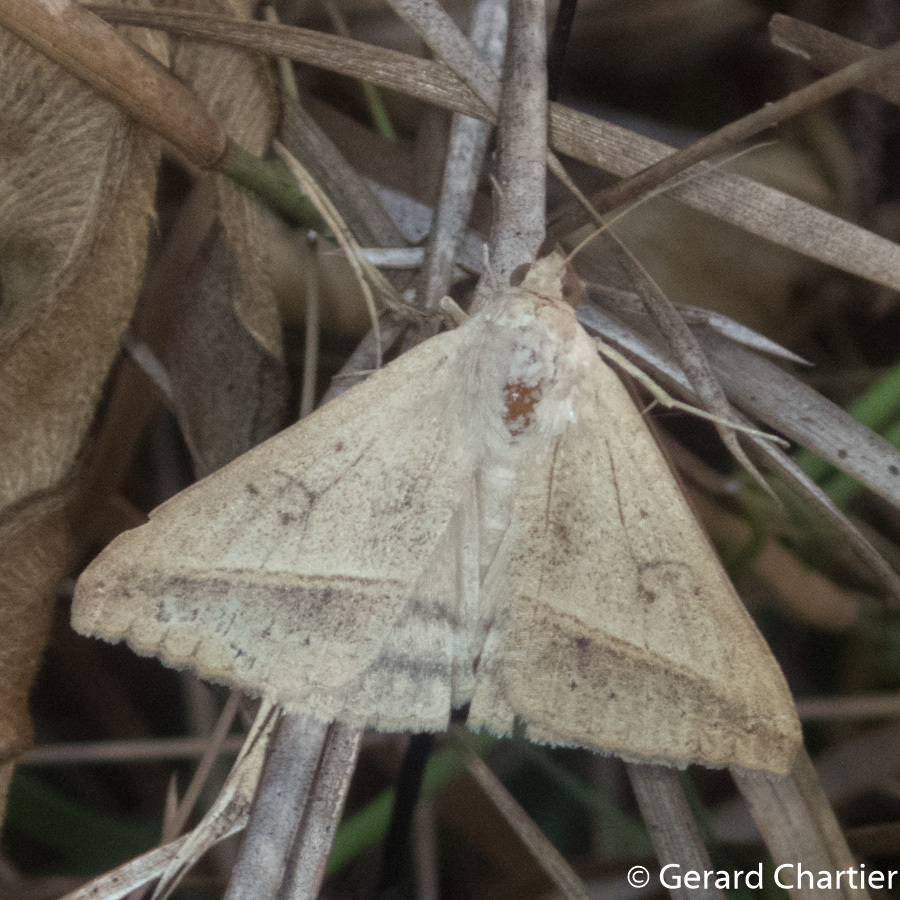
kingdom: Animalia
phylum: Arthropoda
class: Insecta
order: Lepidoptera
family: Erebidae
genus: Mocis
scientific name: Mocis frugalis
